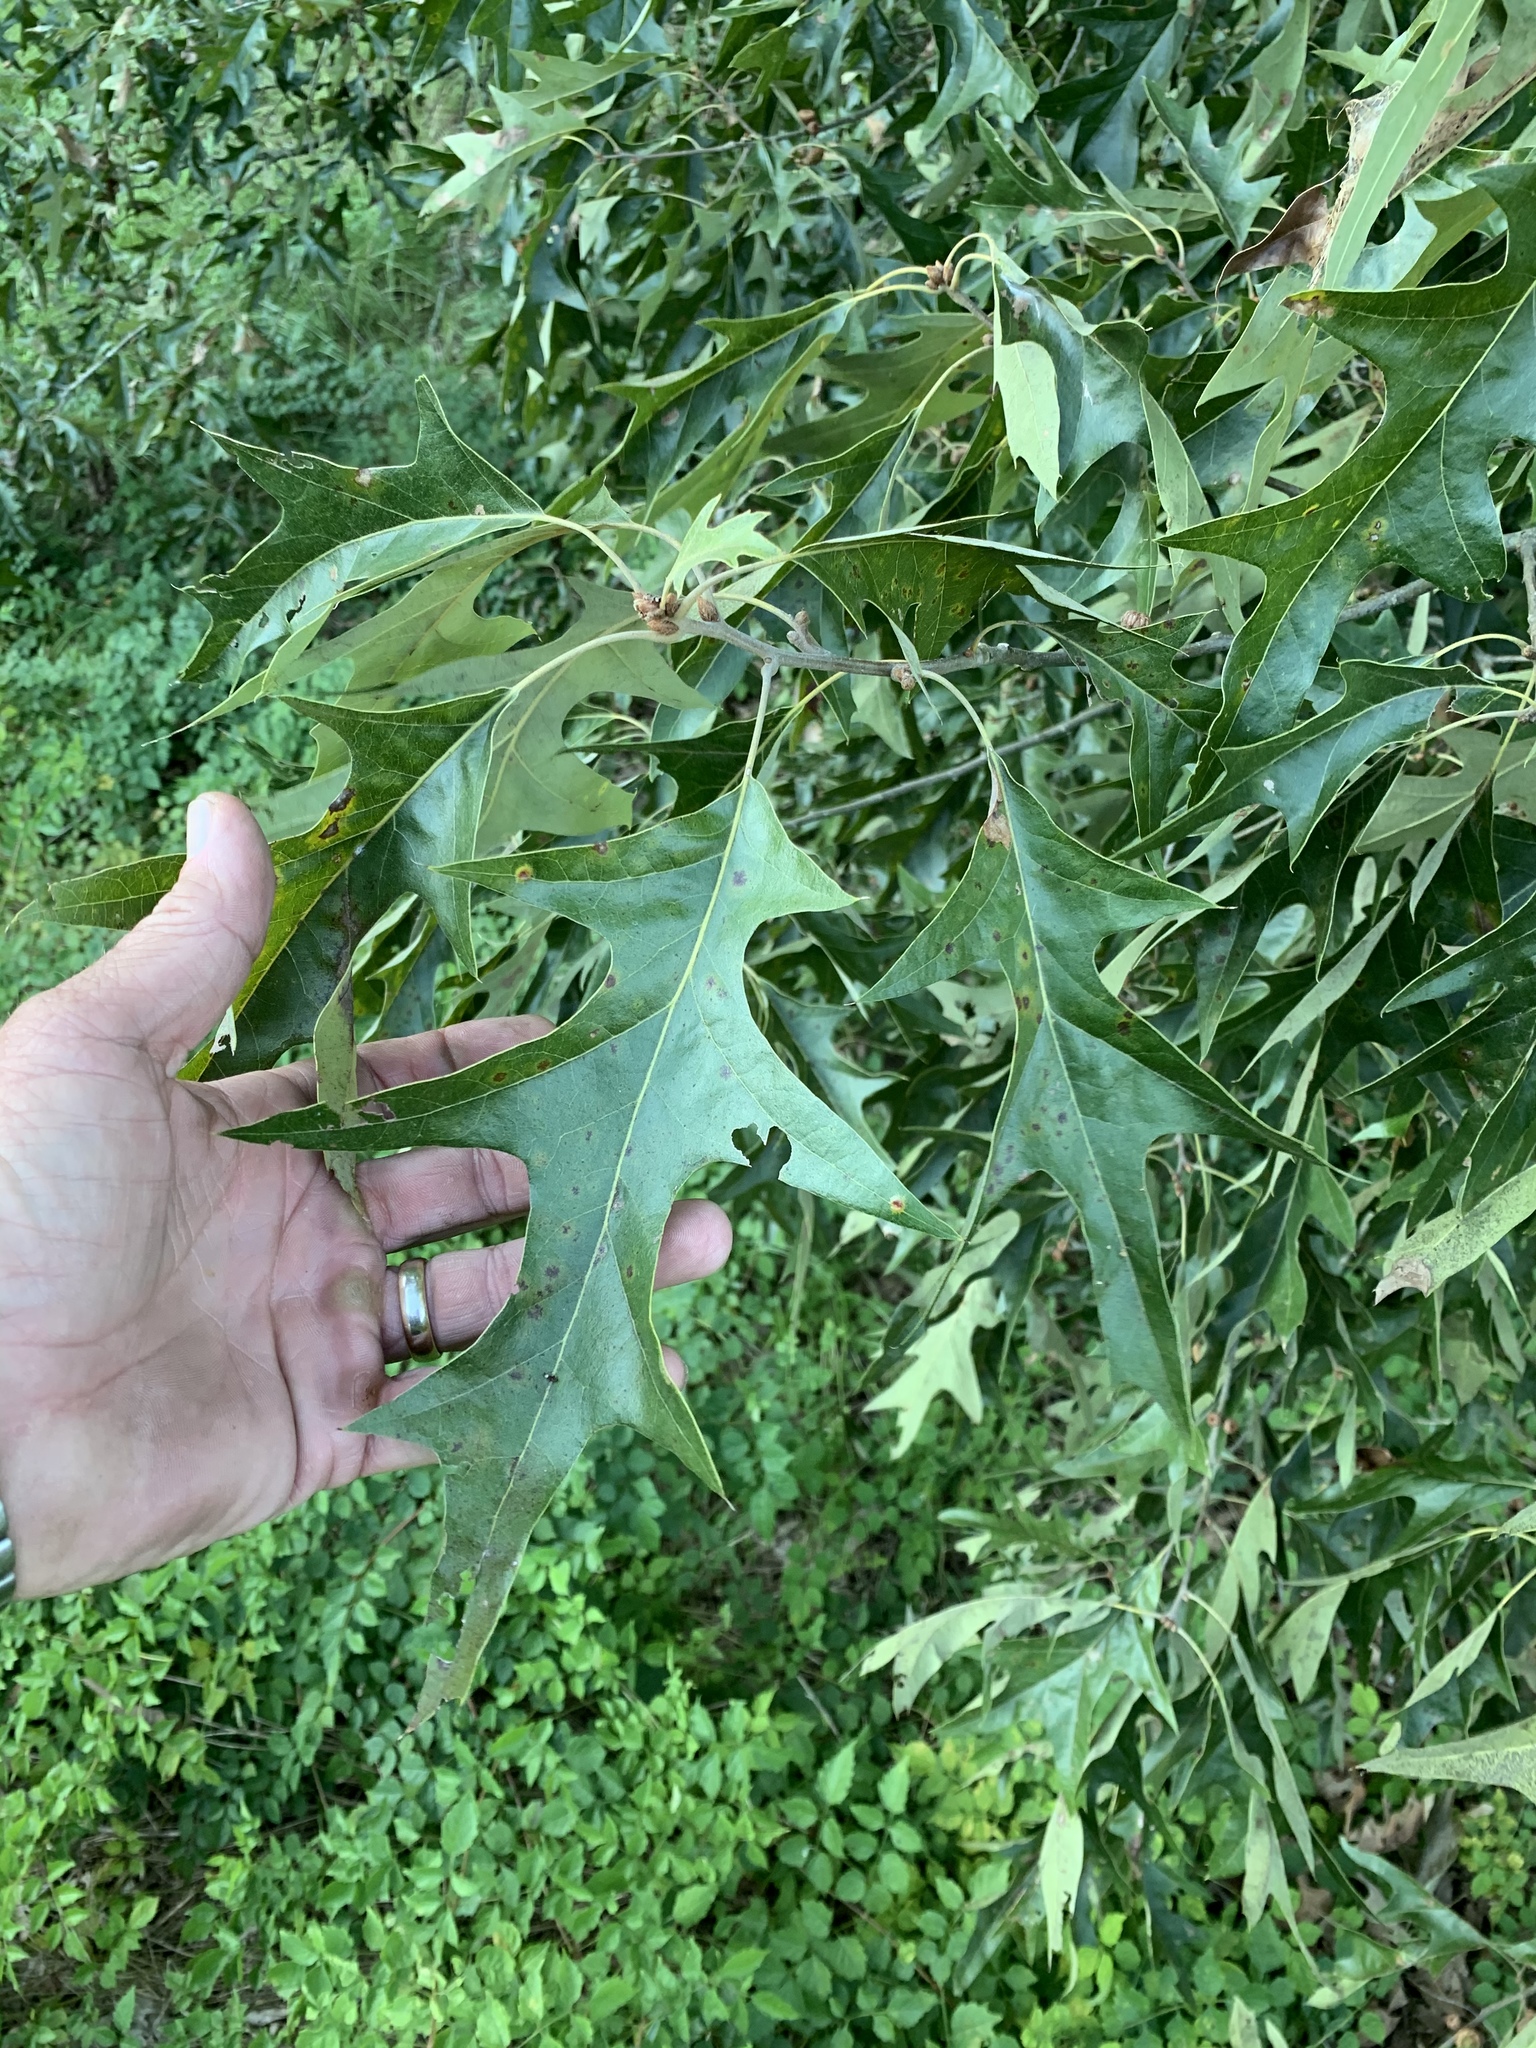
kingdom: Plantae
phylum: Tracheophyta
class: Magnoliopsida
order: Fagales
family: Fagaceae
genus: Quercus
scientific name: Quercus falcata
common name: Southern red oak
